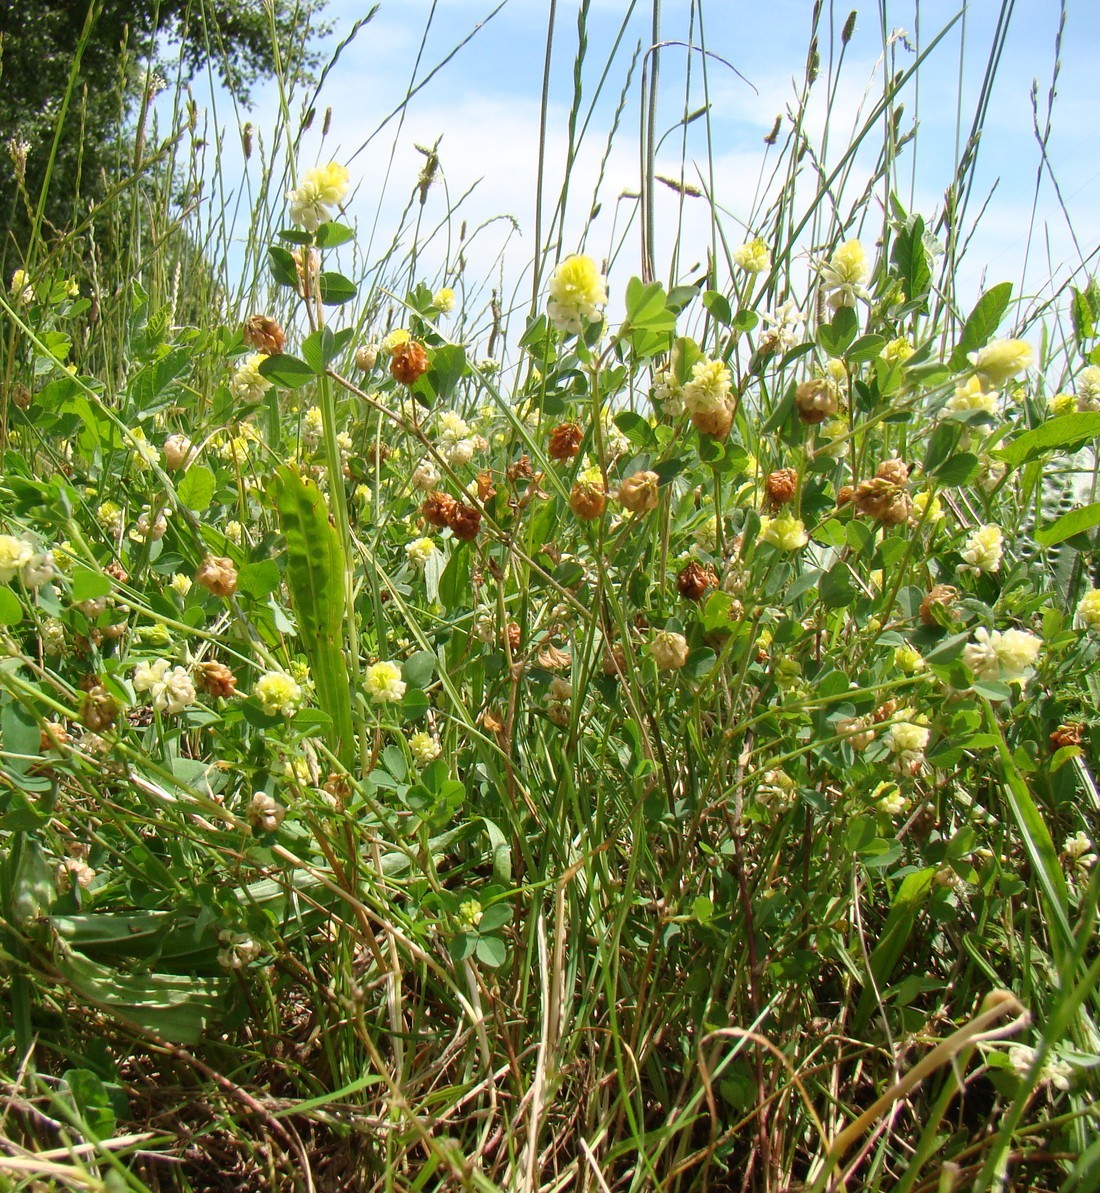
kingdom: Plantae
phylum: Tracheophyta
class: Magnoliopsida
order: Fabales
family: Fabaceae
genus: Trifolium
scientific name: Trifolium campestre
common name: Field clover
